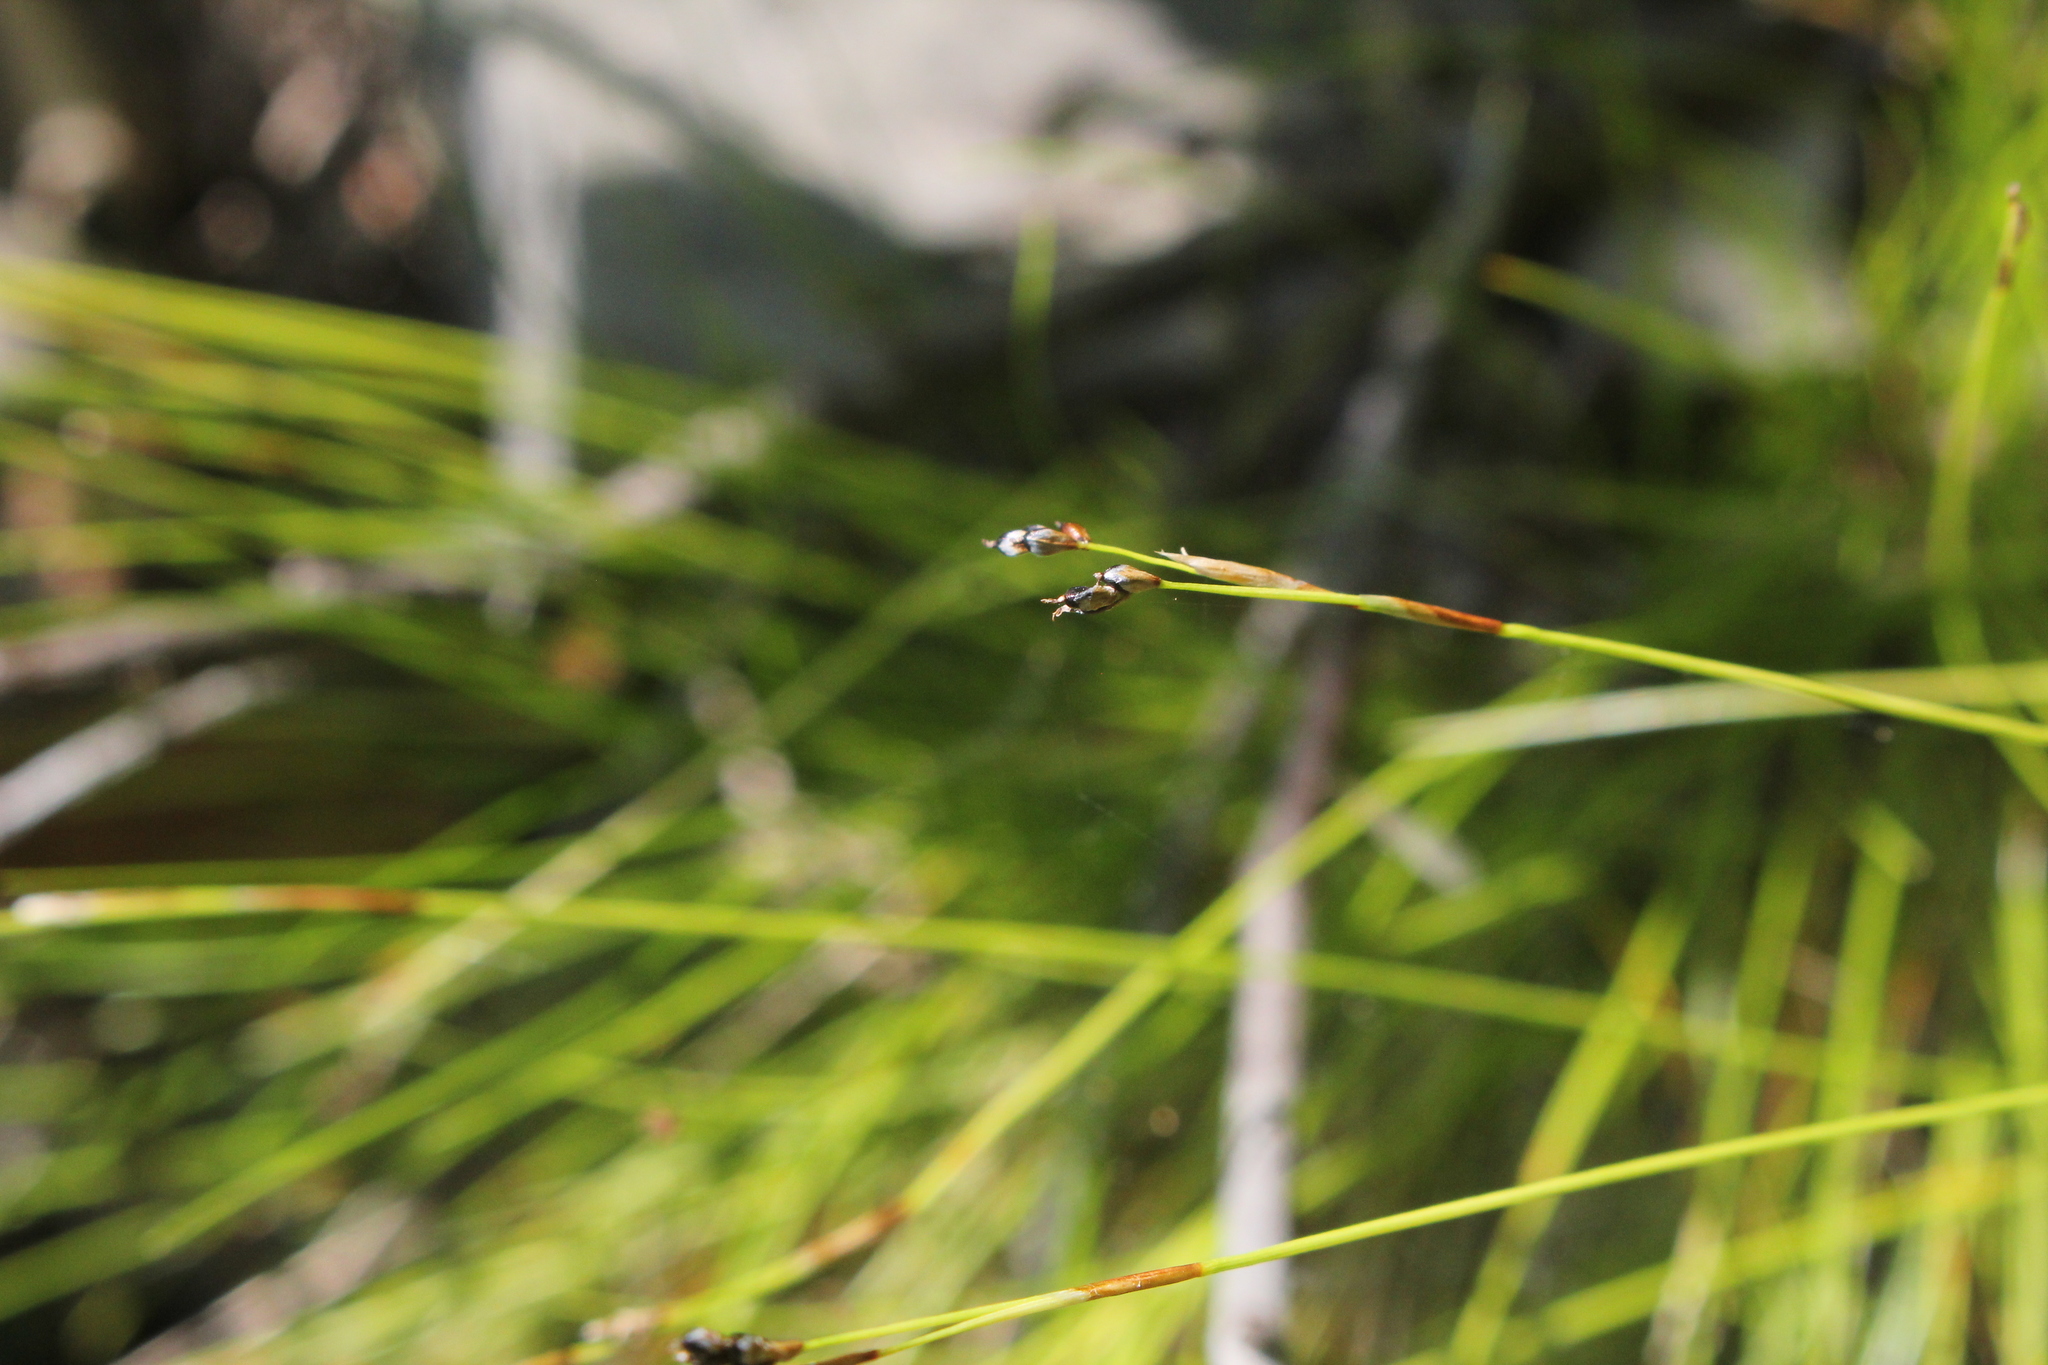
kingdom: Plantae
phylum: Tracheophyta
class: Liliopsida
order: Poales
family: Cyperaceae
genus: Carex
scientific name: Carex eburnea
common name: Bristle-leaved sedge
